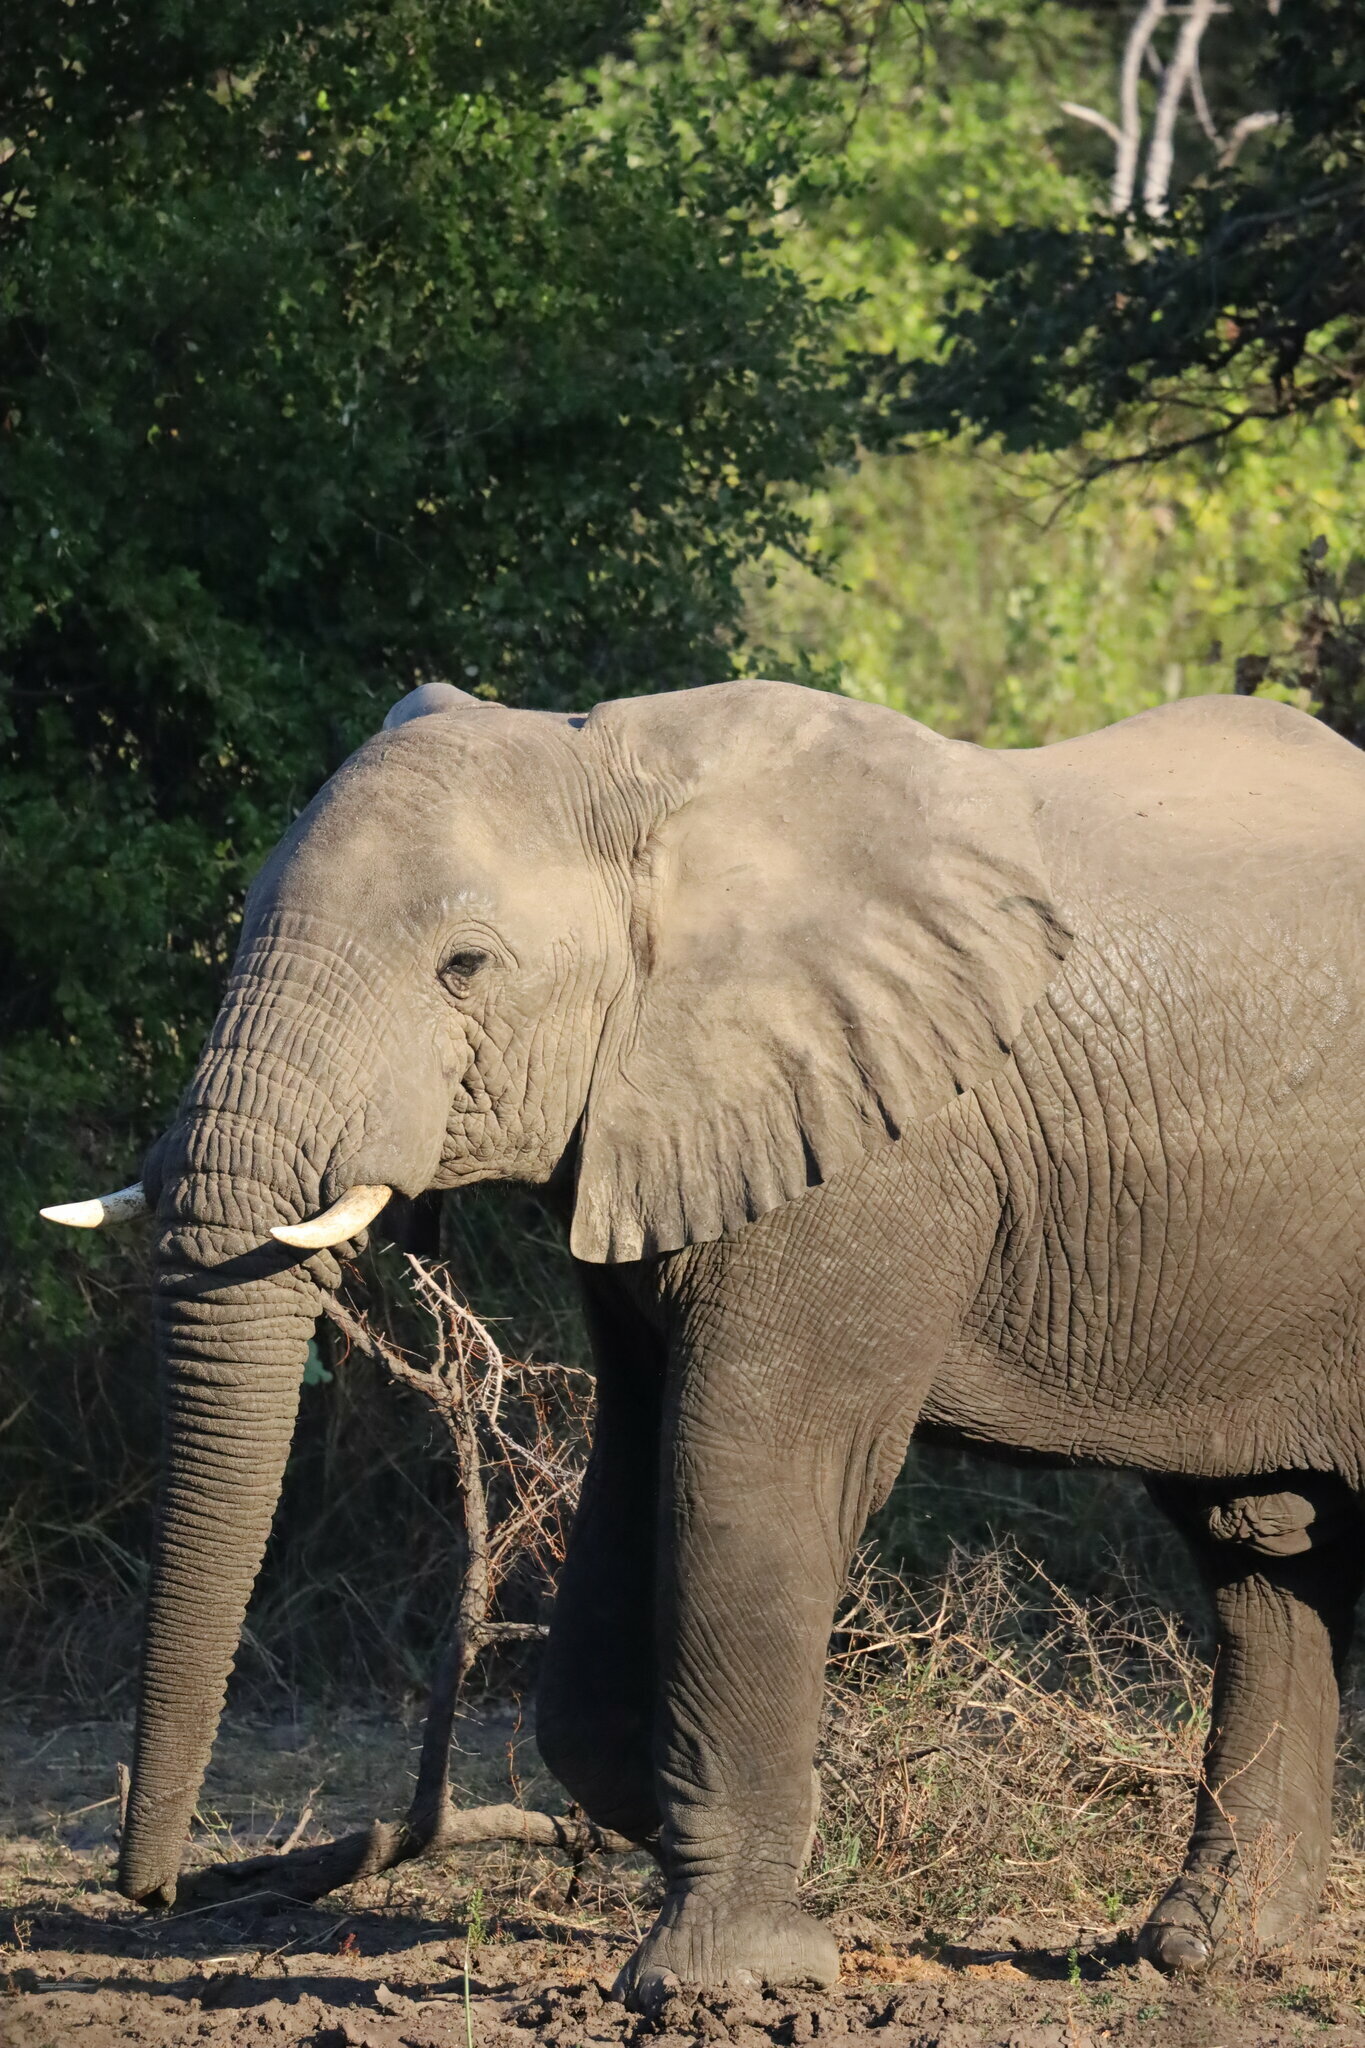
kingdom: Animalia
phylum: Chordata
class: Mammalia
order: Proboscidea
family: Elephantidae
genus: Loxodonta
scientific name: Loxodonta africana
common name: African elephant
